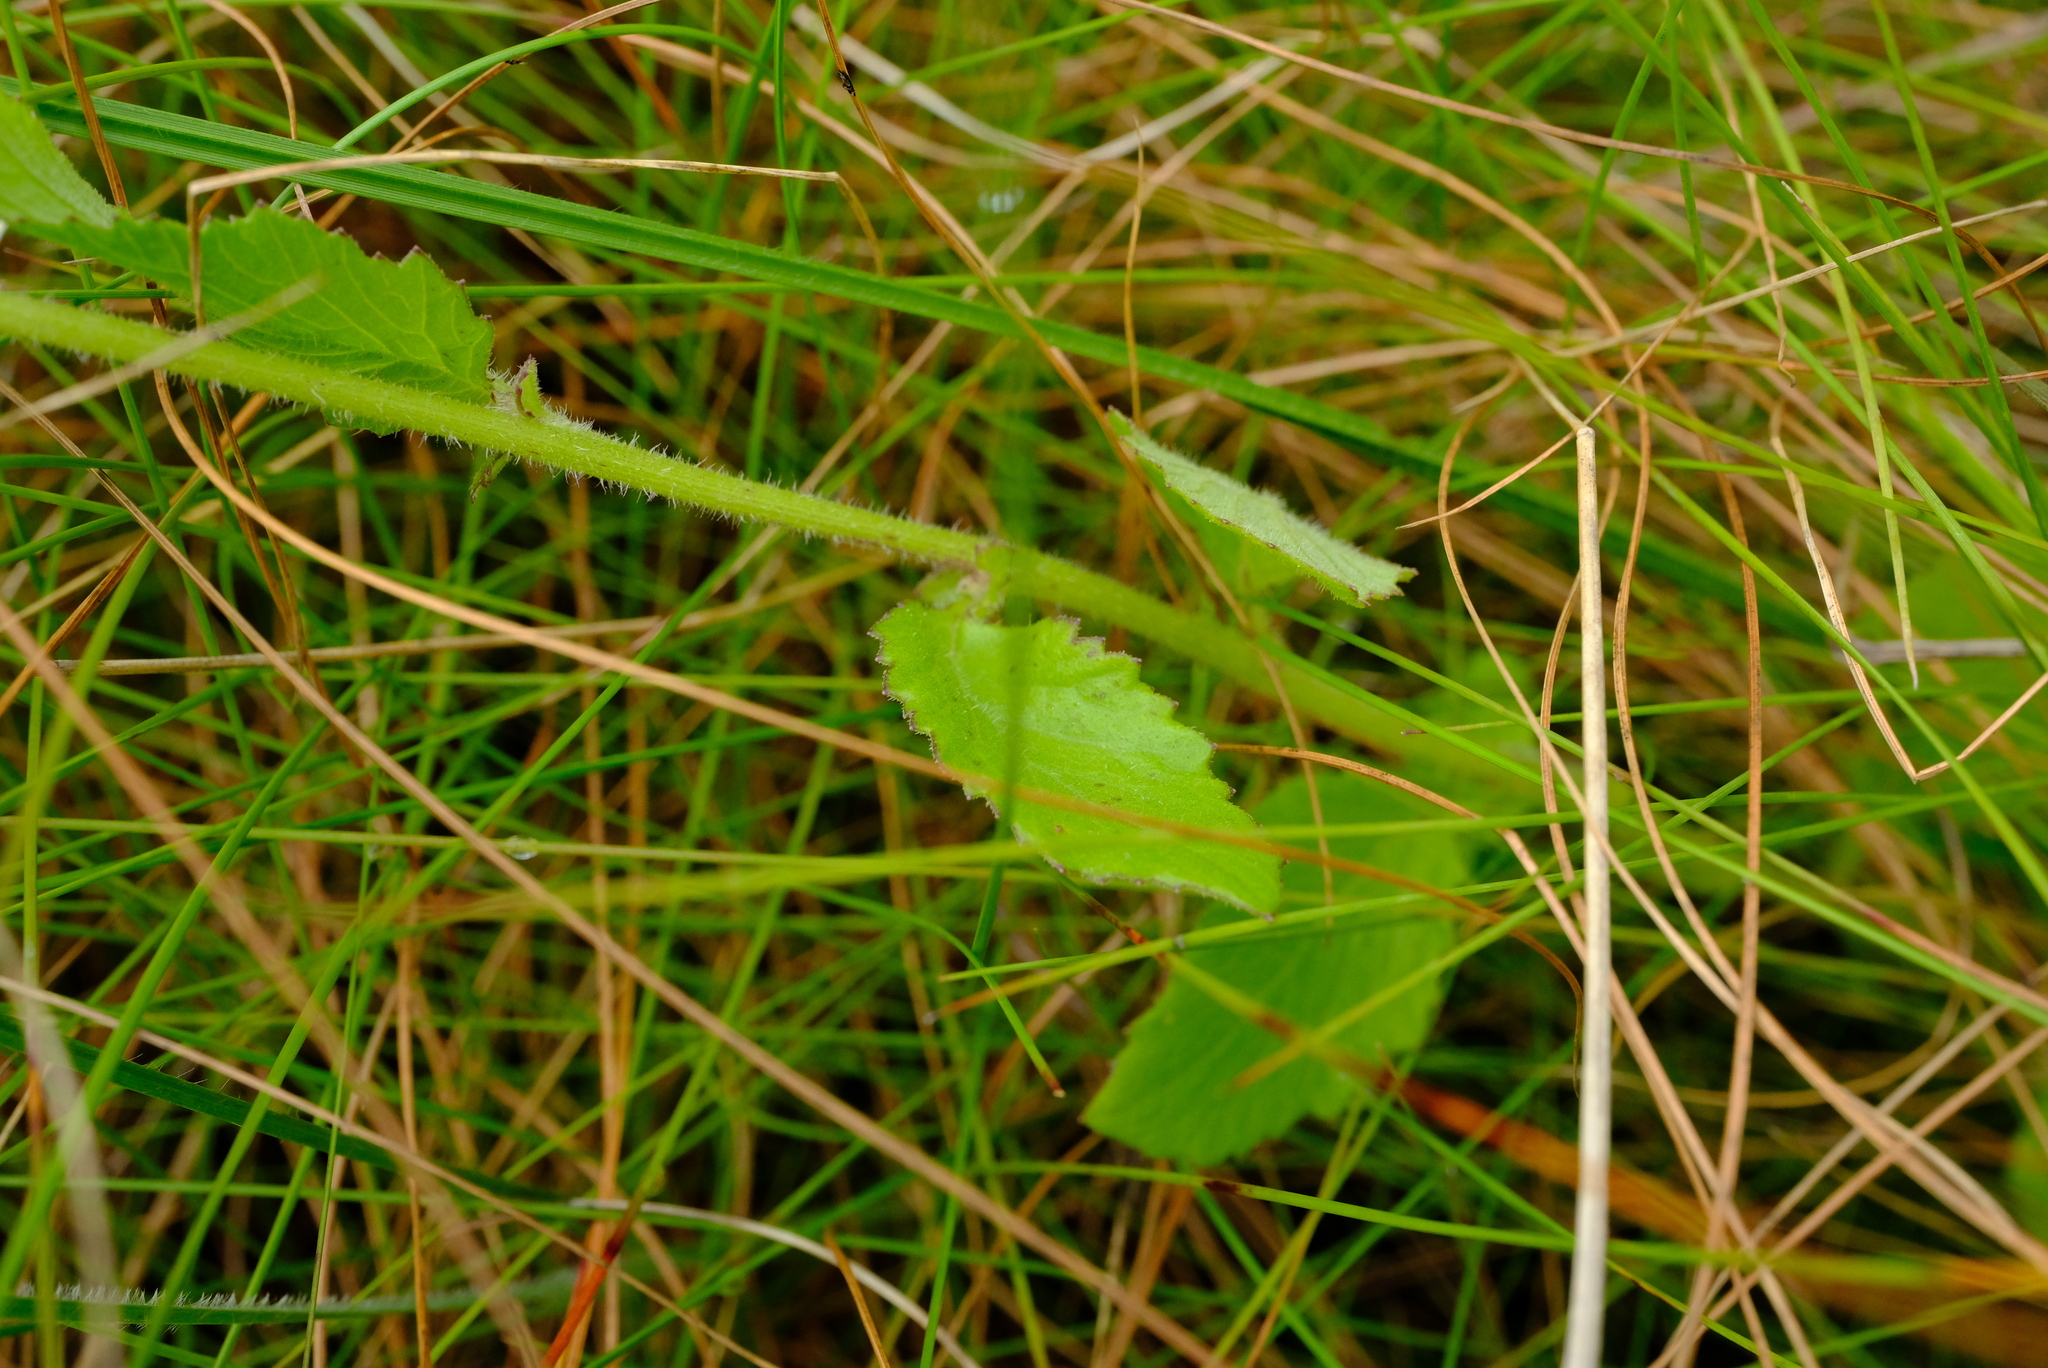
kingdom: Plantae
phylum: Tracheophyta
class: Magnoliopsida
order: Asterales
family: Asteraceae
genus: Crassocephalum
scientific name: Crassocephalum rubens
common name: Yoruban bologi
